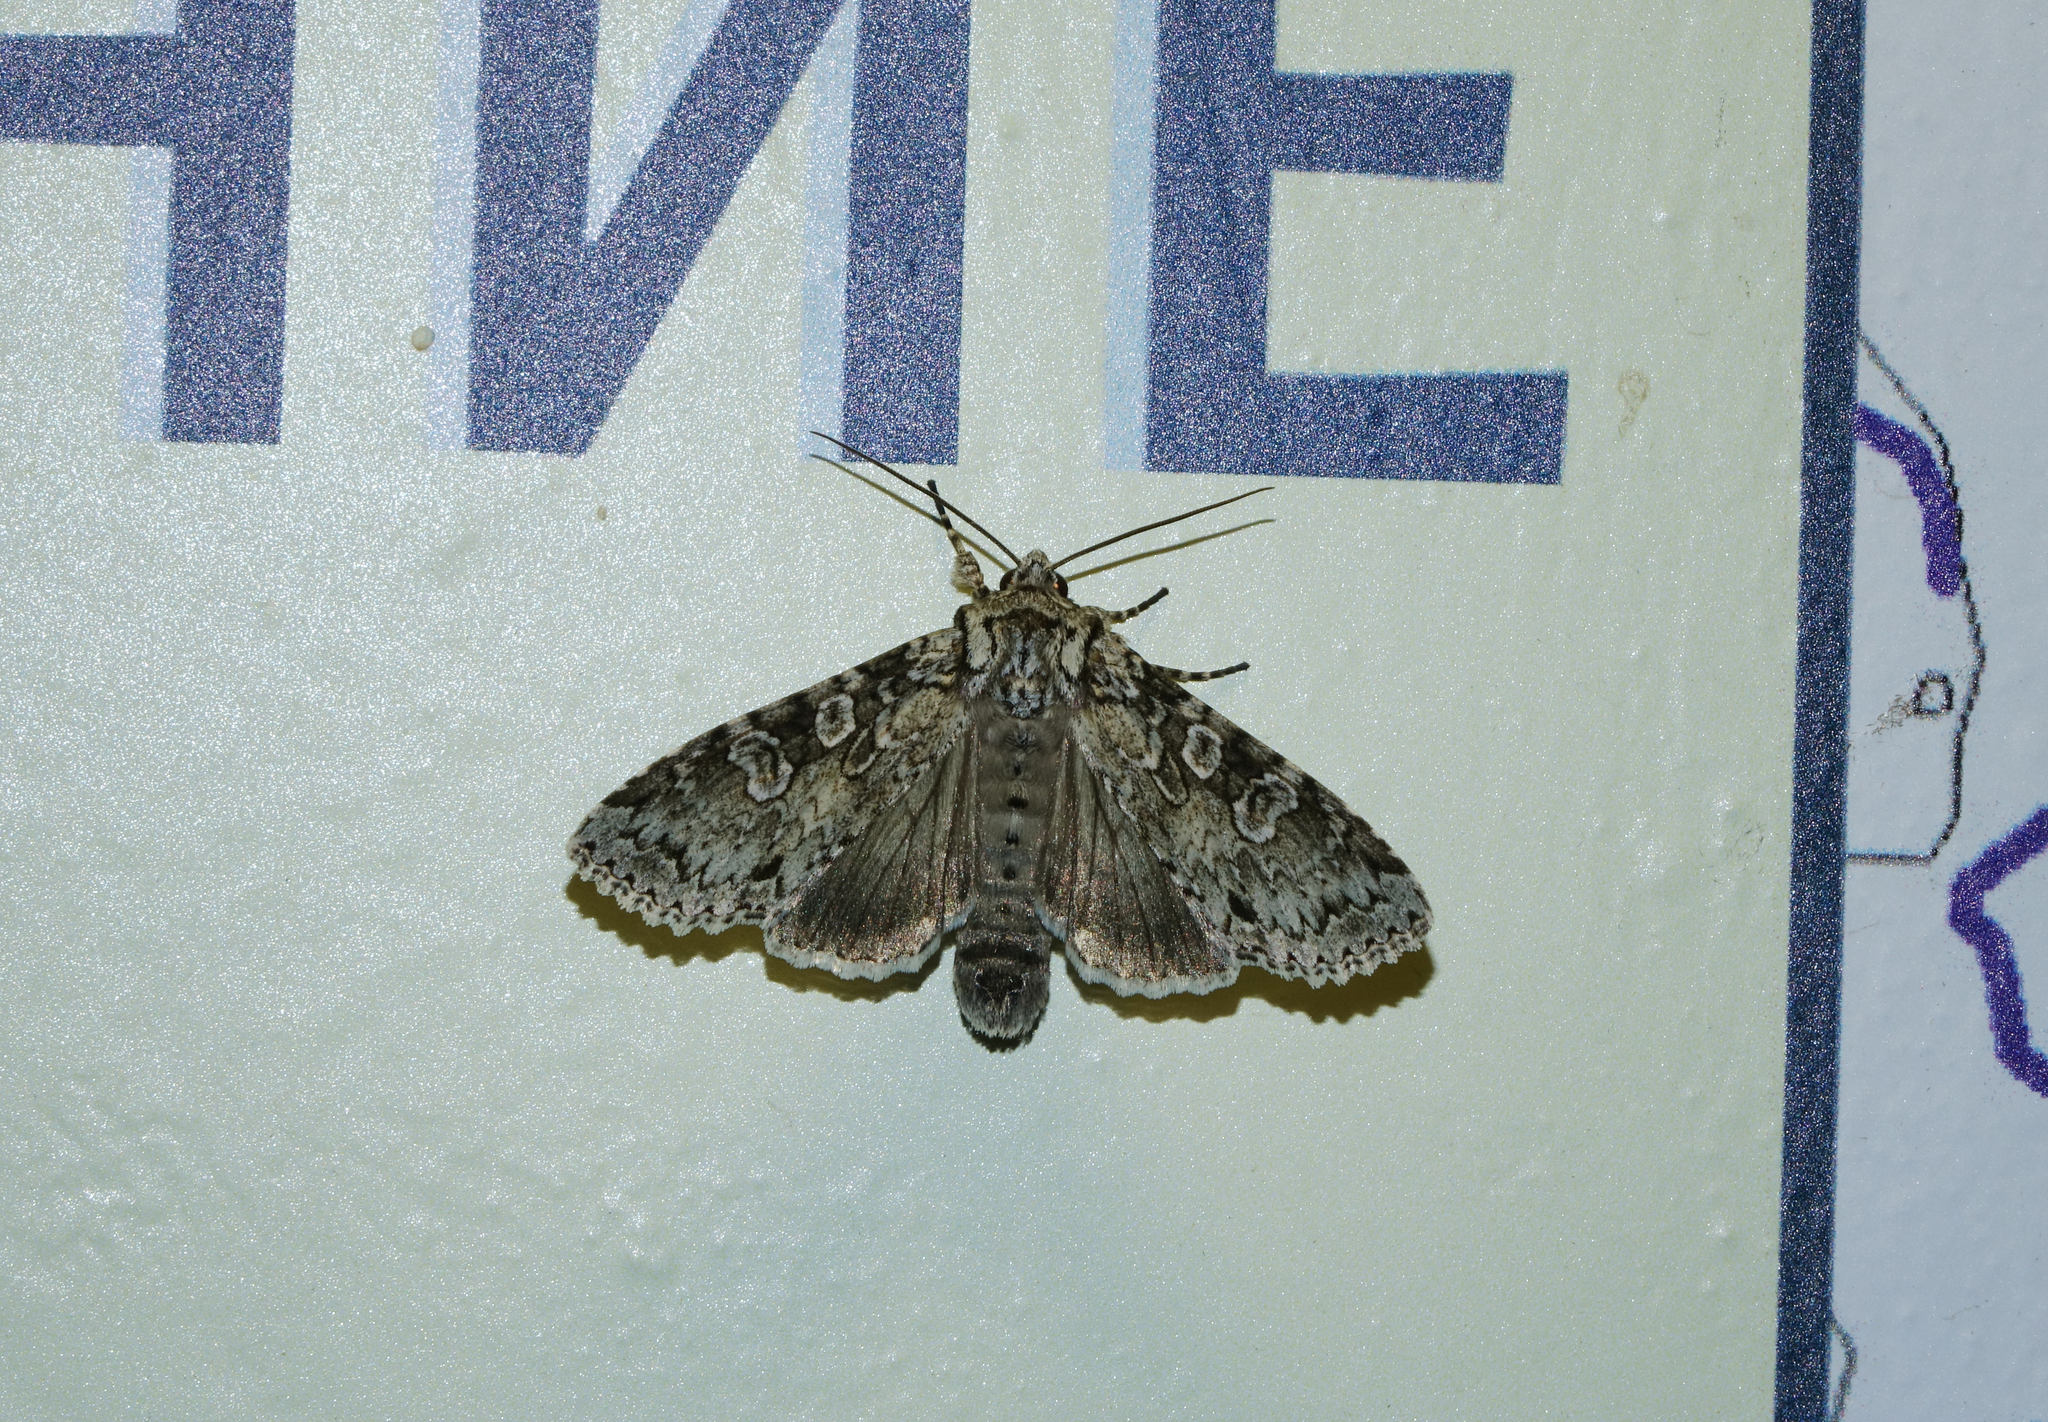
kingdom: Animalia
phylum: Arthropoda
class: Insecta
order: Lepidoptera
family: Noctuidae
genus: Polia
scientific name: Polia nebulosa
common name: Grey arches
